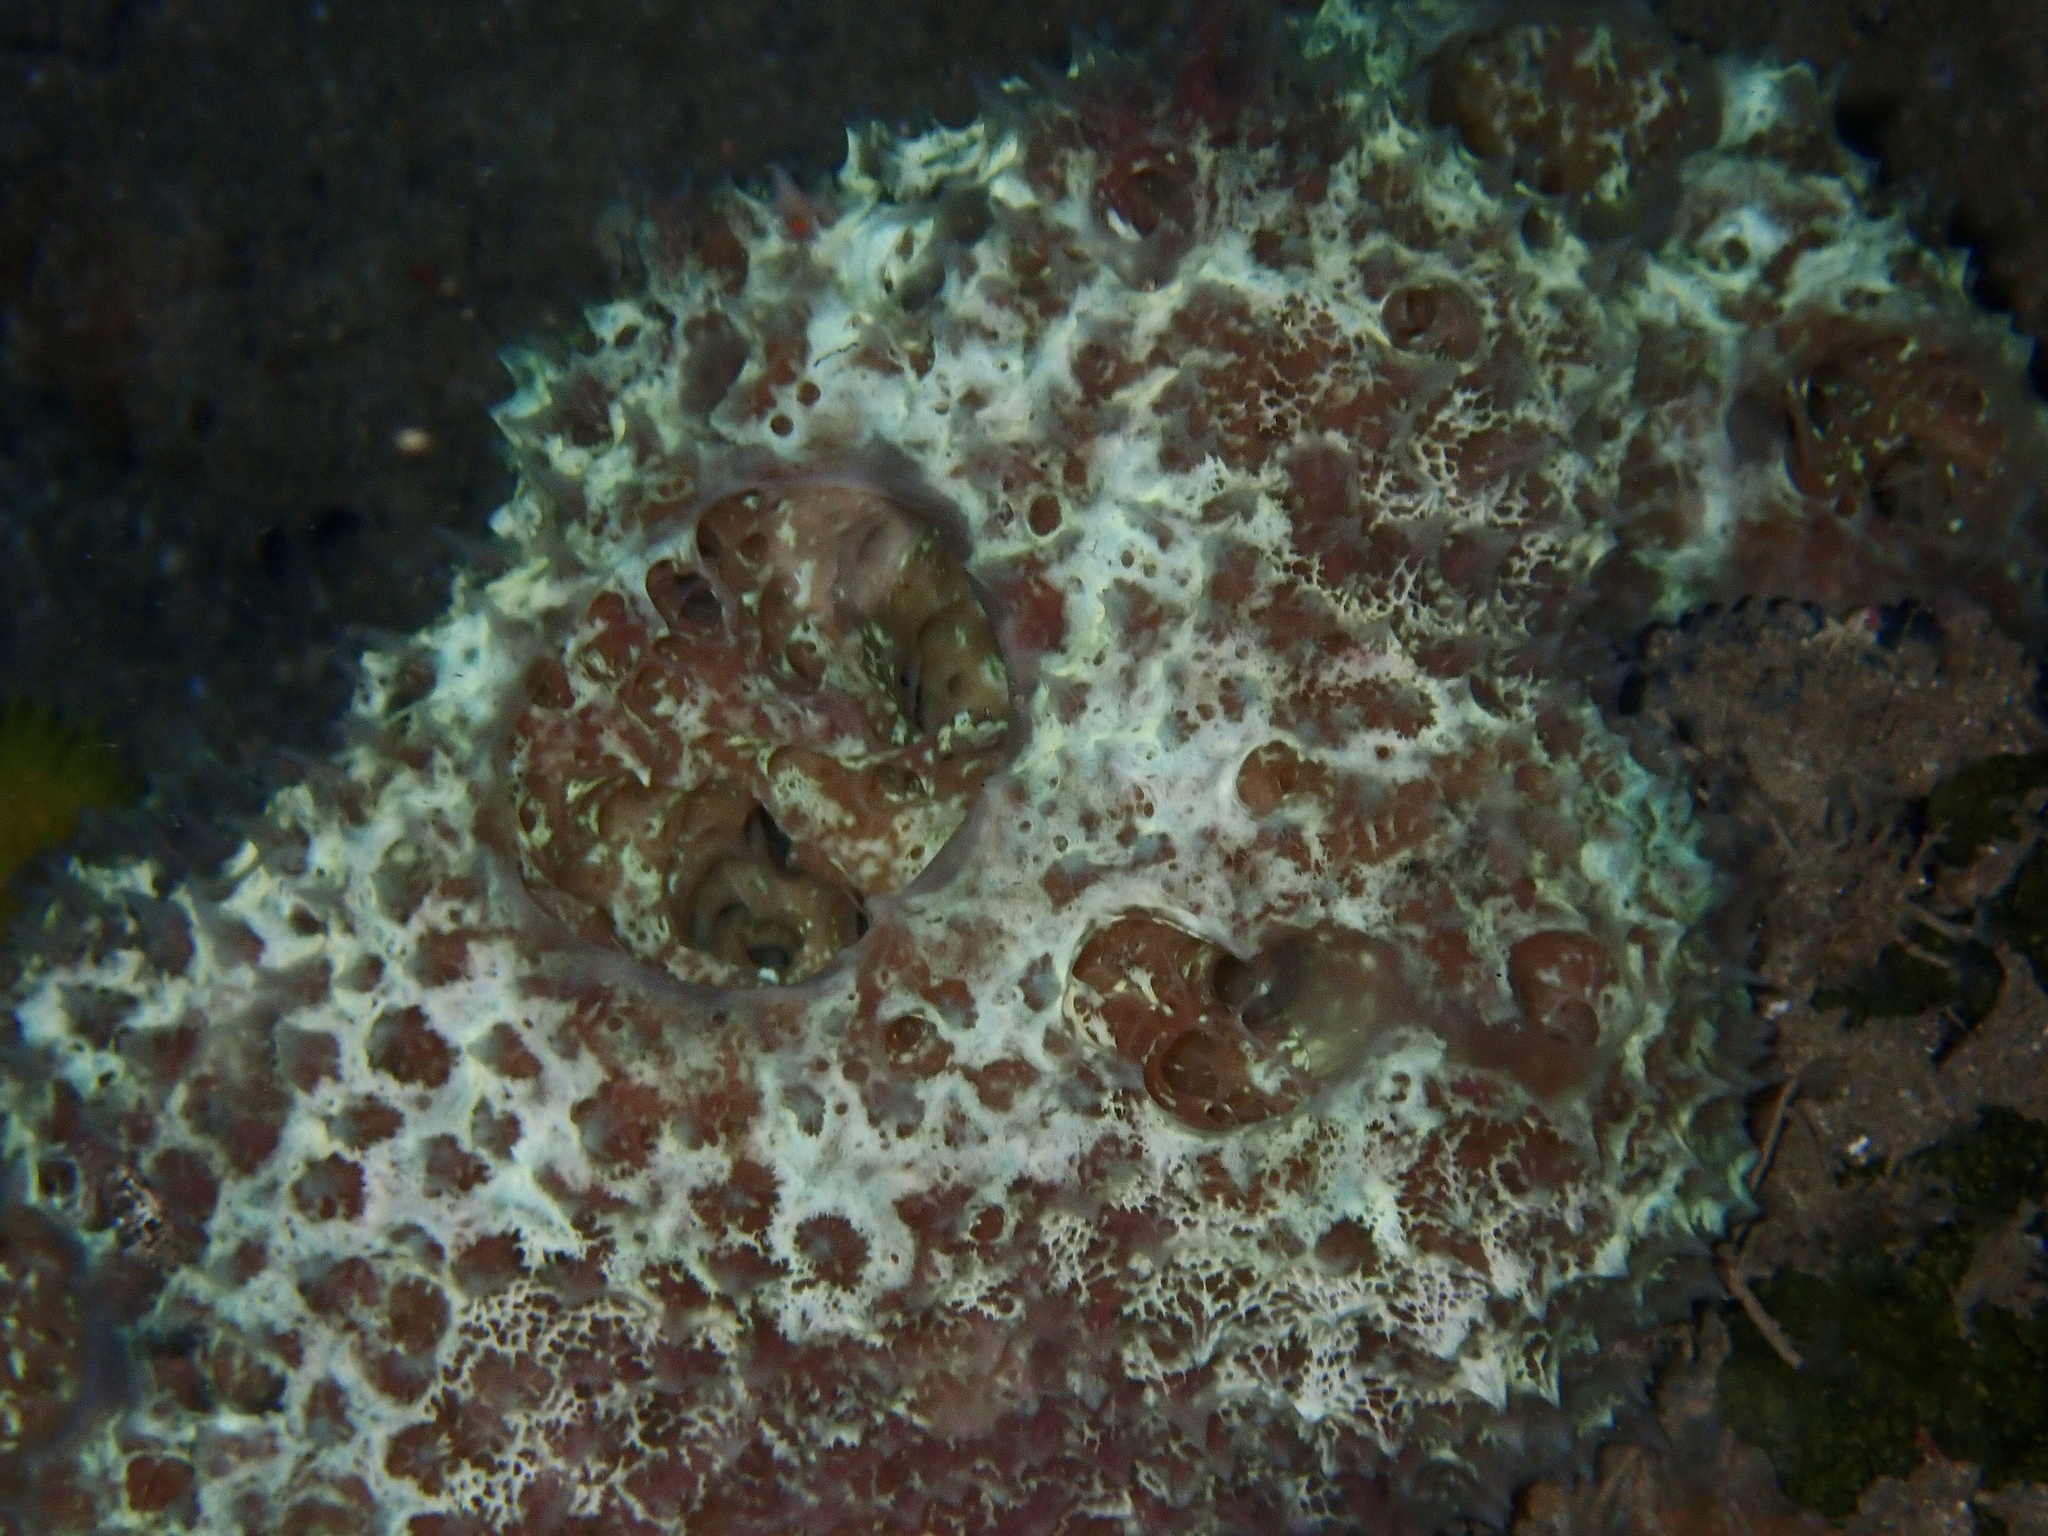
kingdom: Animalia
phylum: Porifera
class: Demospongiae
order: Poecilosclerida
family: Mycalidae
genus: Mycale
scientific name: Mycale laxissima
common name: Strawberry vase sponge
